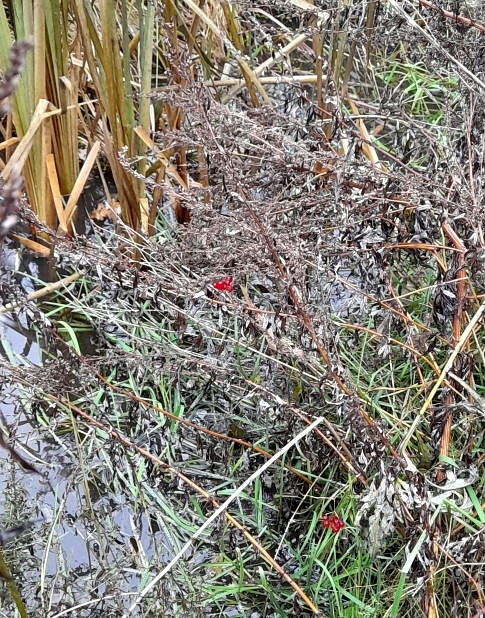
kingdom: Plantae
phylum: Tracheophyta
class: Magnoliopsida
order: Solanales
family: Solanaceae
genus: Solanum
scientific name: Solanum dulcamara
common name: Climbing nightshade
